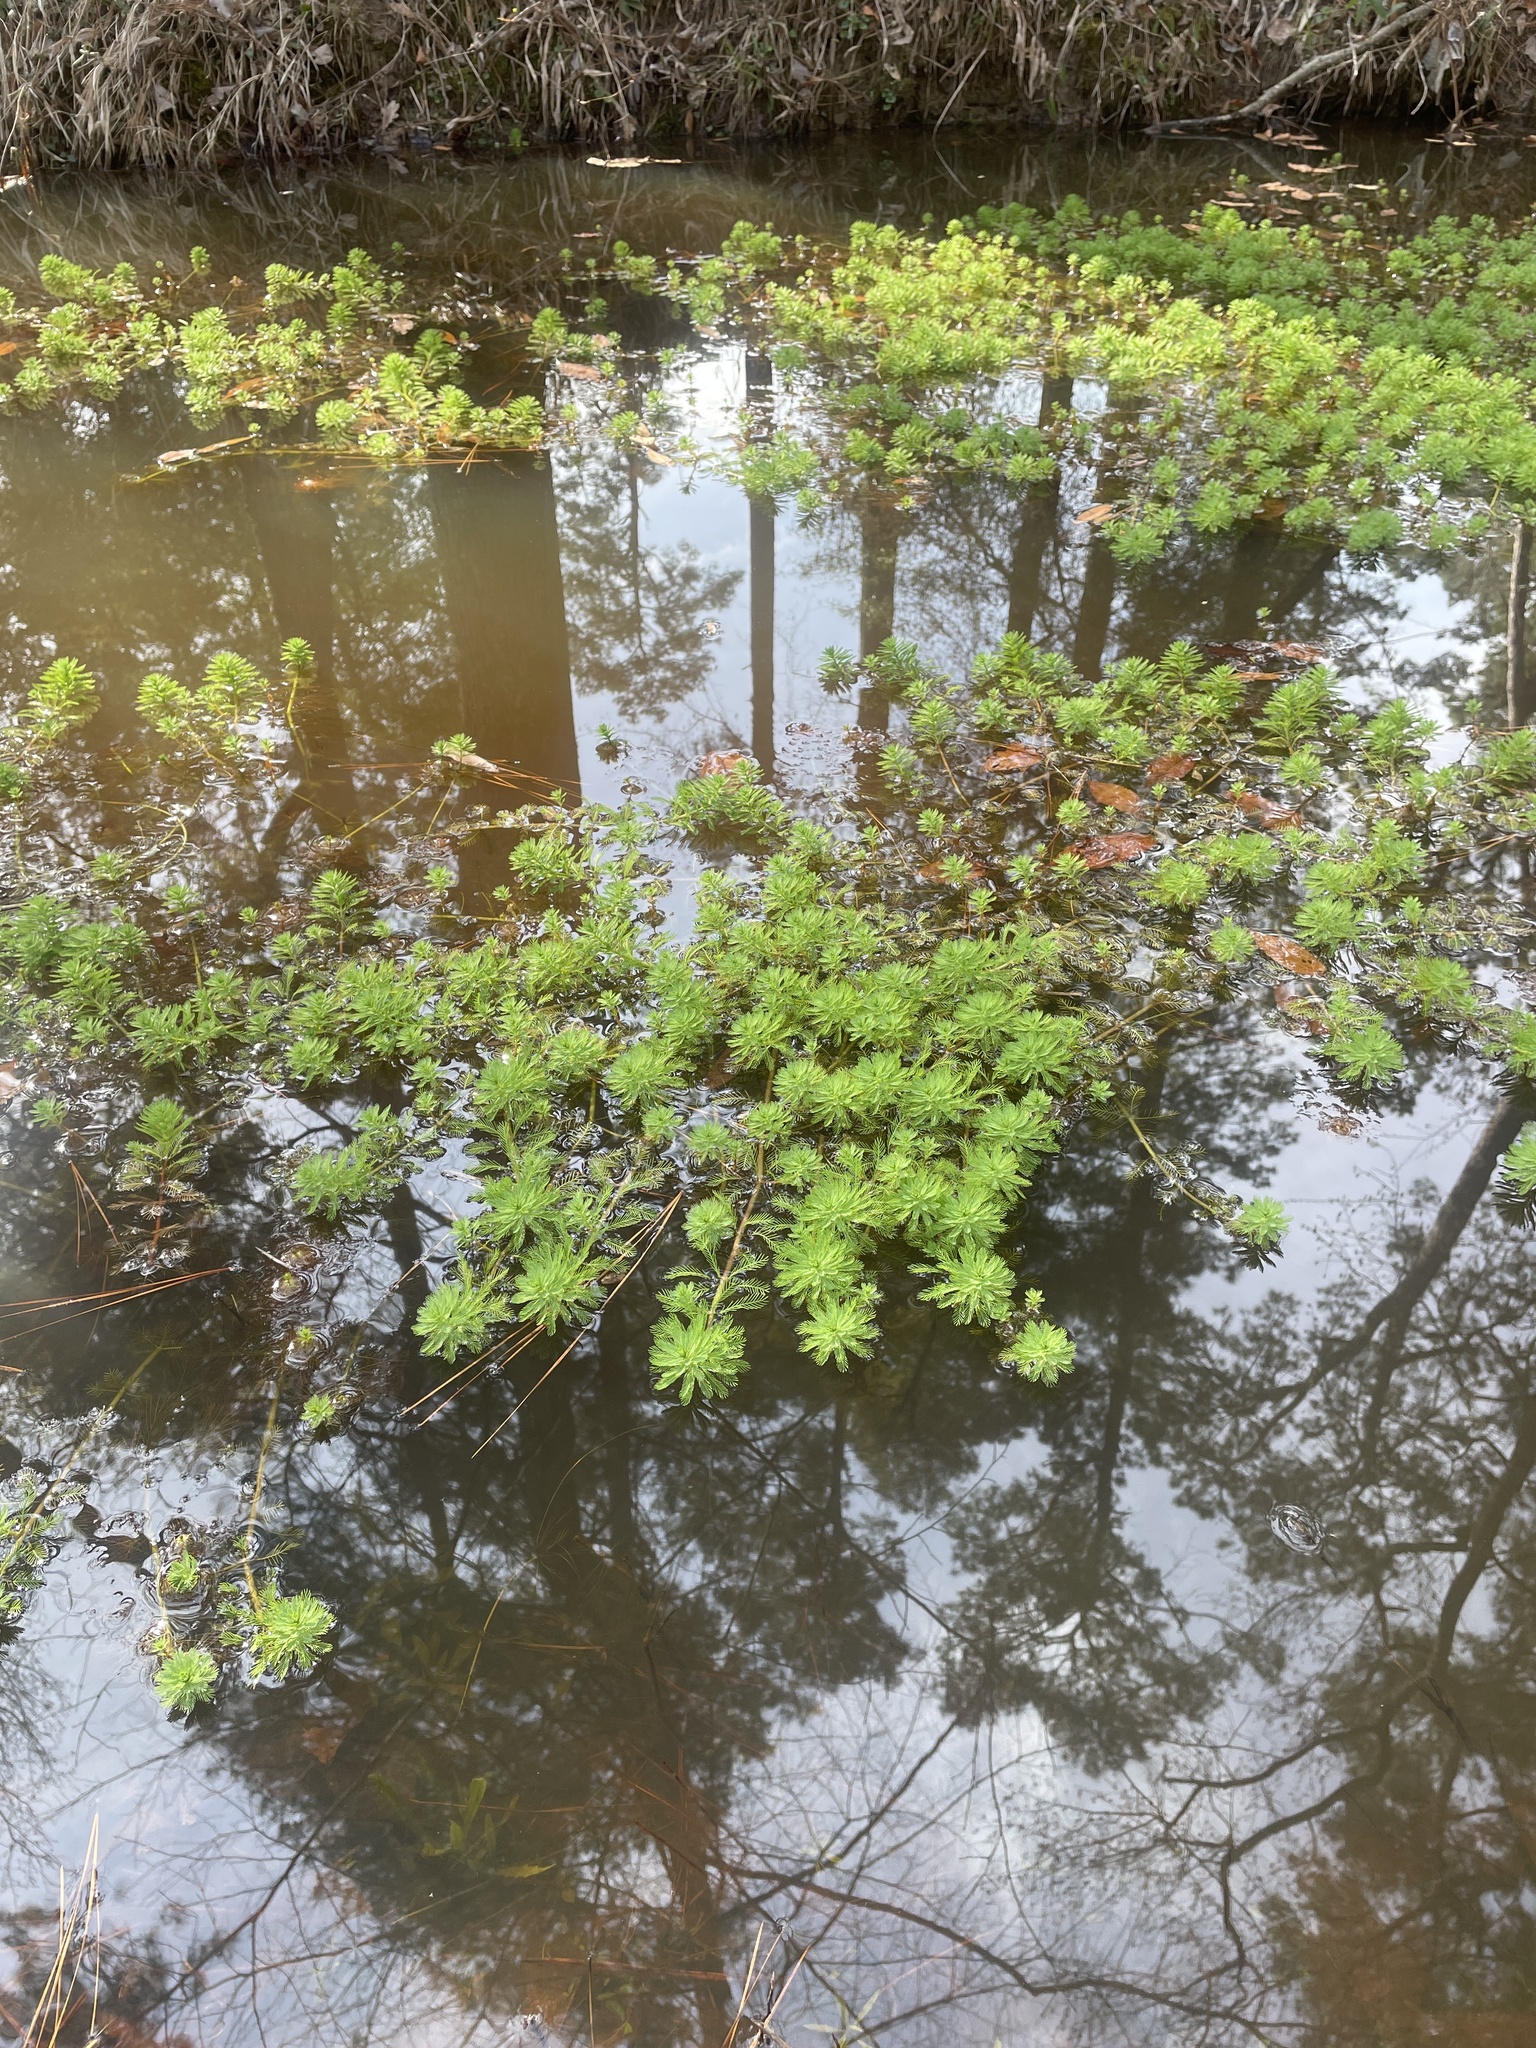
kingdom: Plantae
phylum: Tracheophyta
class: Magnoliopsida
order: Saxifragales
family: Haloragaceae
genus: Myriophyllum
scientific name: Myriophyllum aquaticum
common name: Parrot's feather
